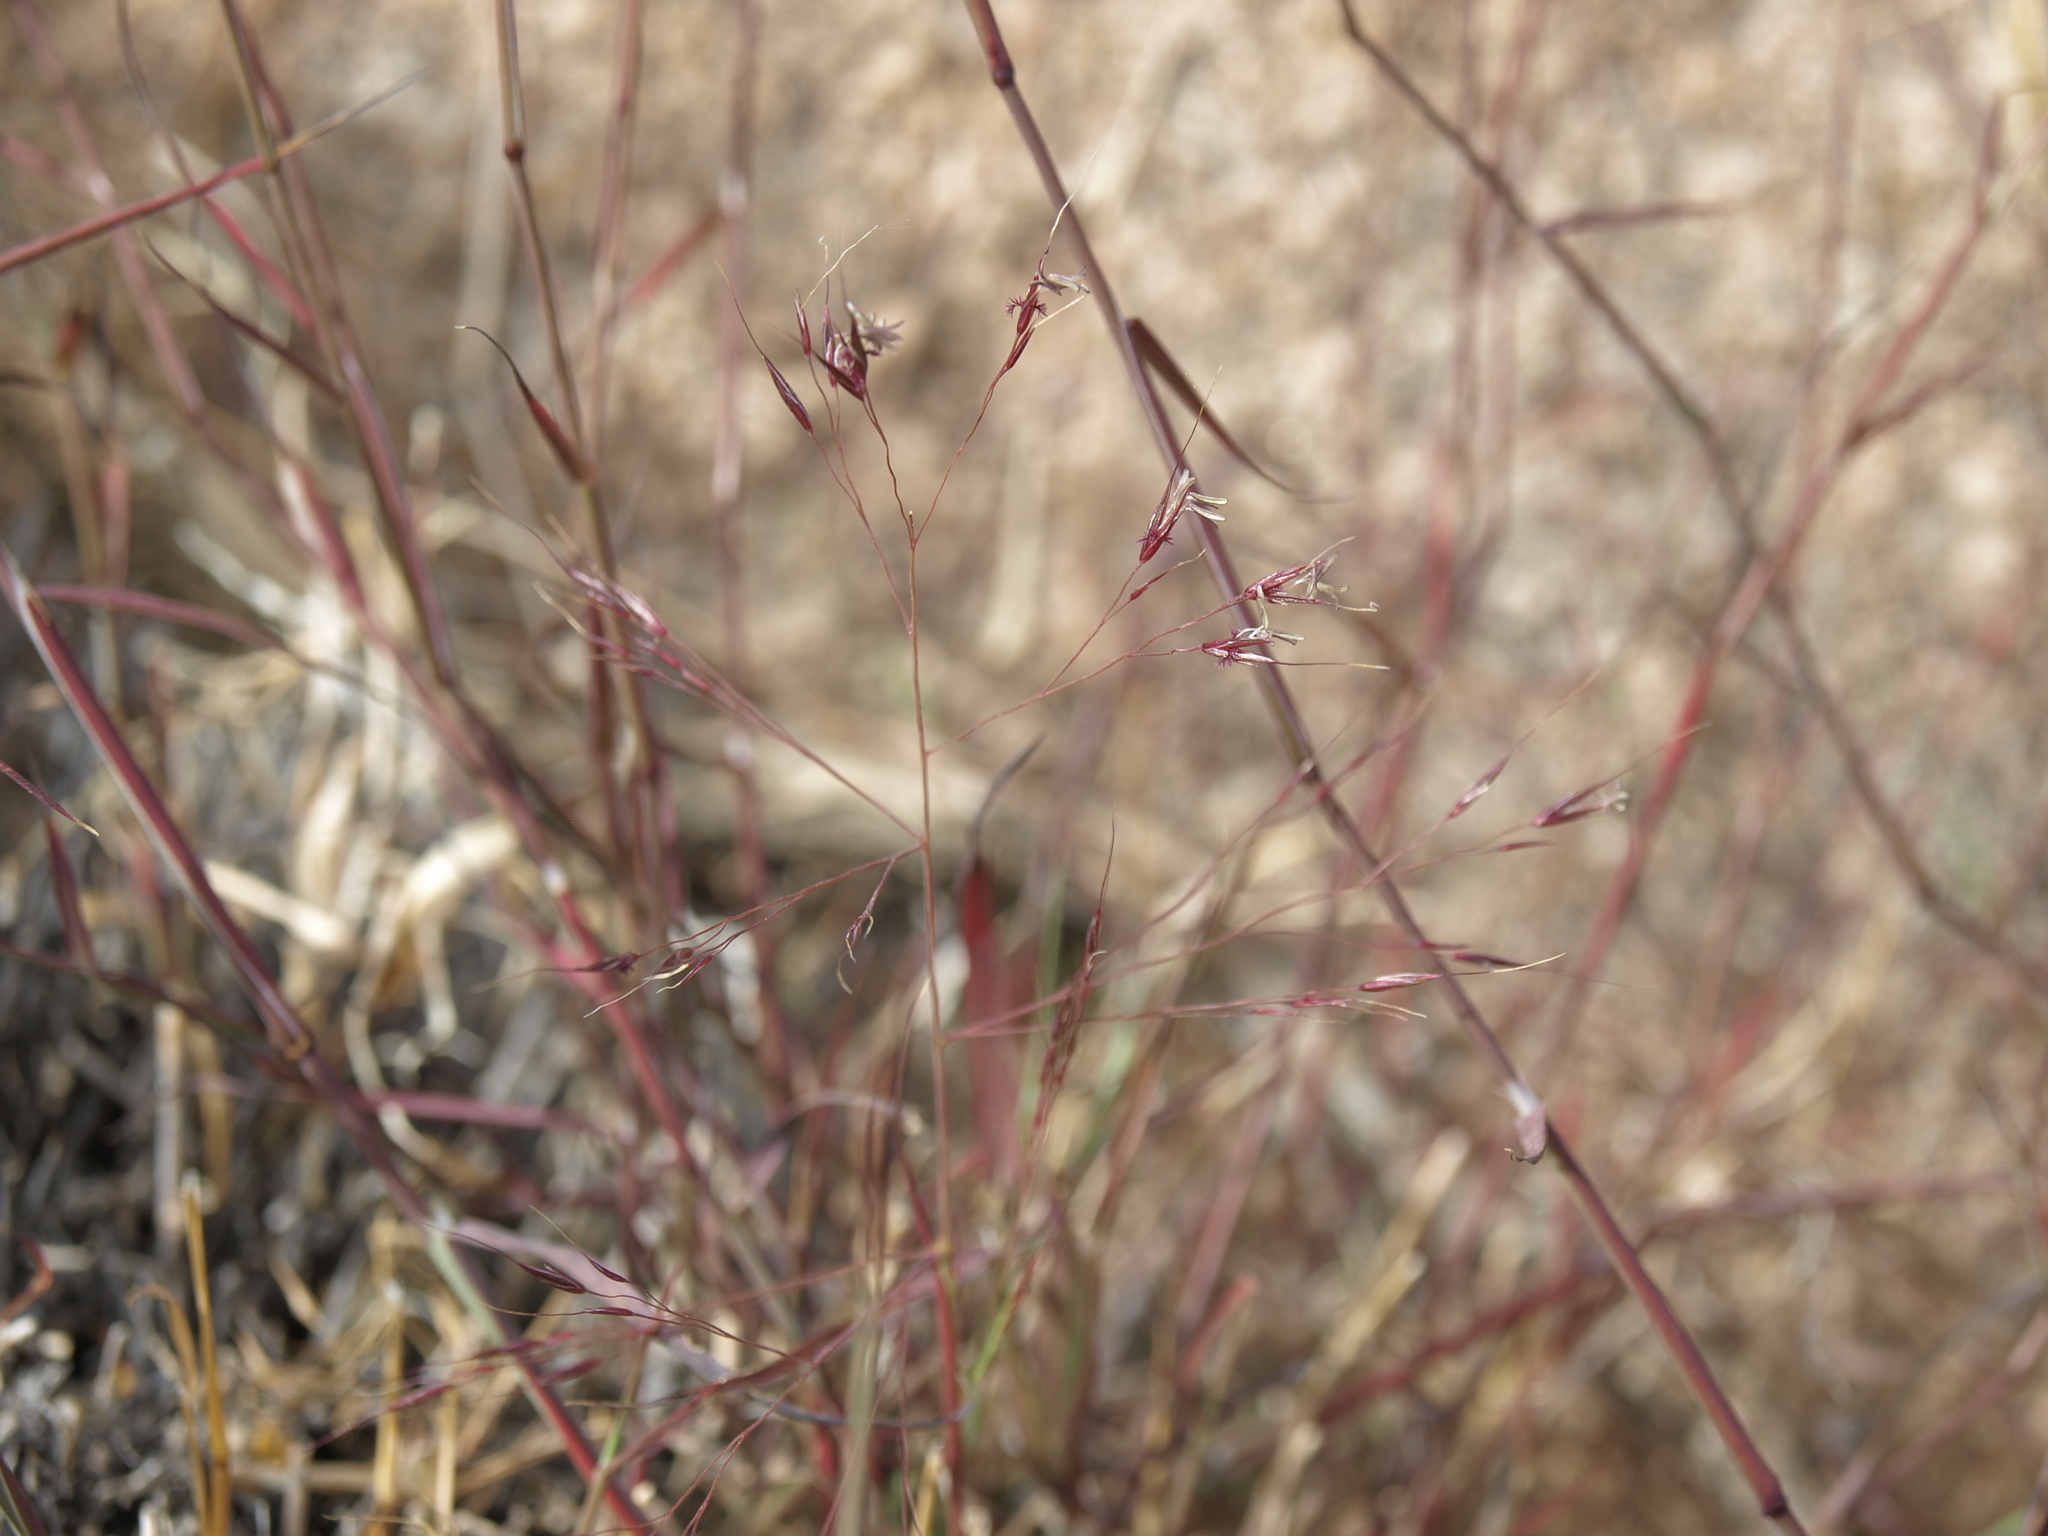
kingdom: Plantae
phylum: Tracheophyta
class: Liliopsida
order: Poales
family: Poaceae
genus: Muhlenbergia
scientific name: Muhlenbergia porteri
